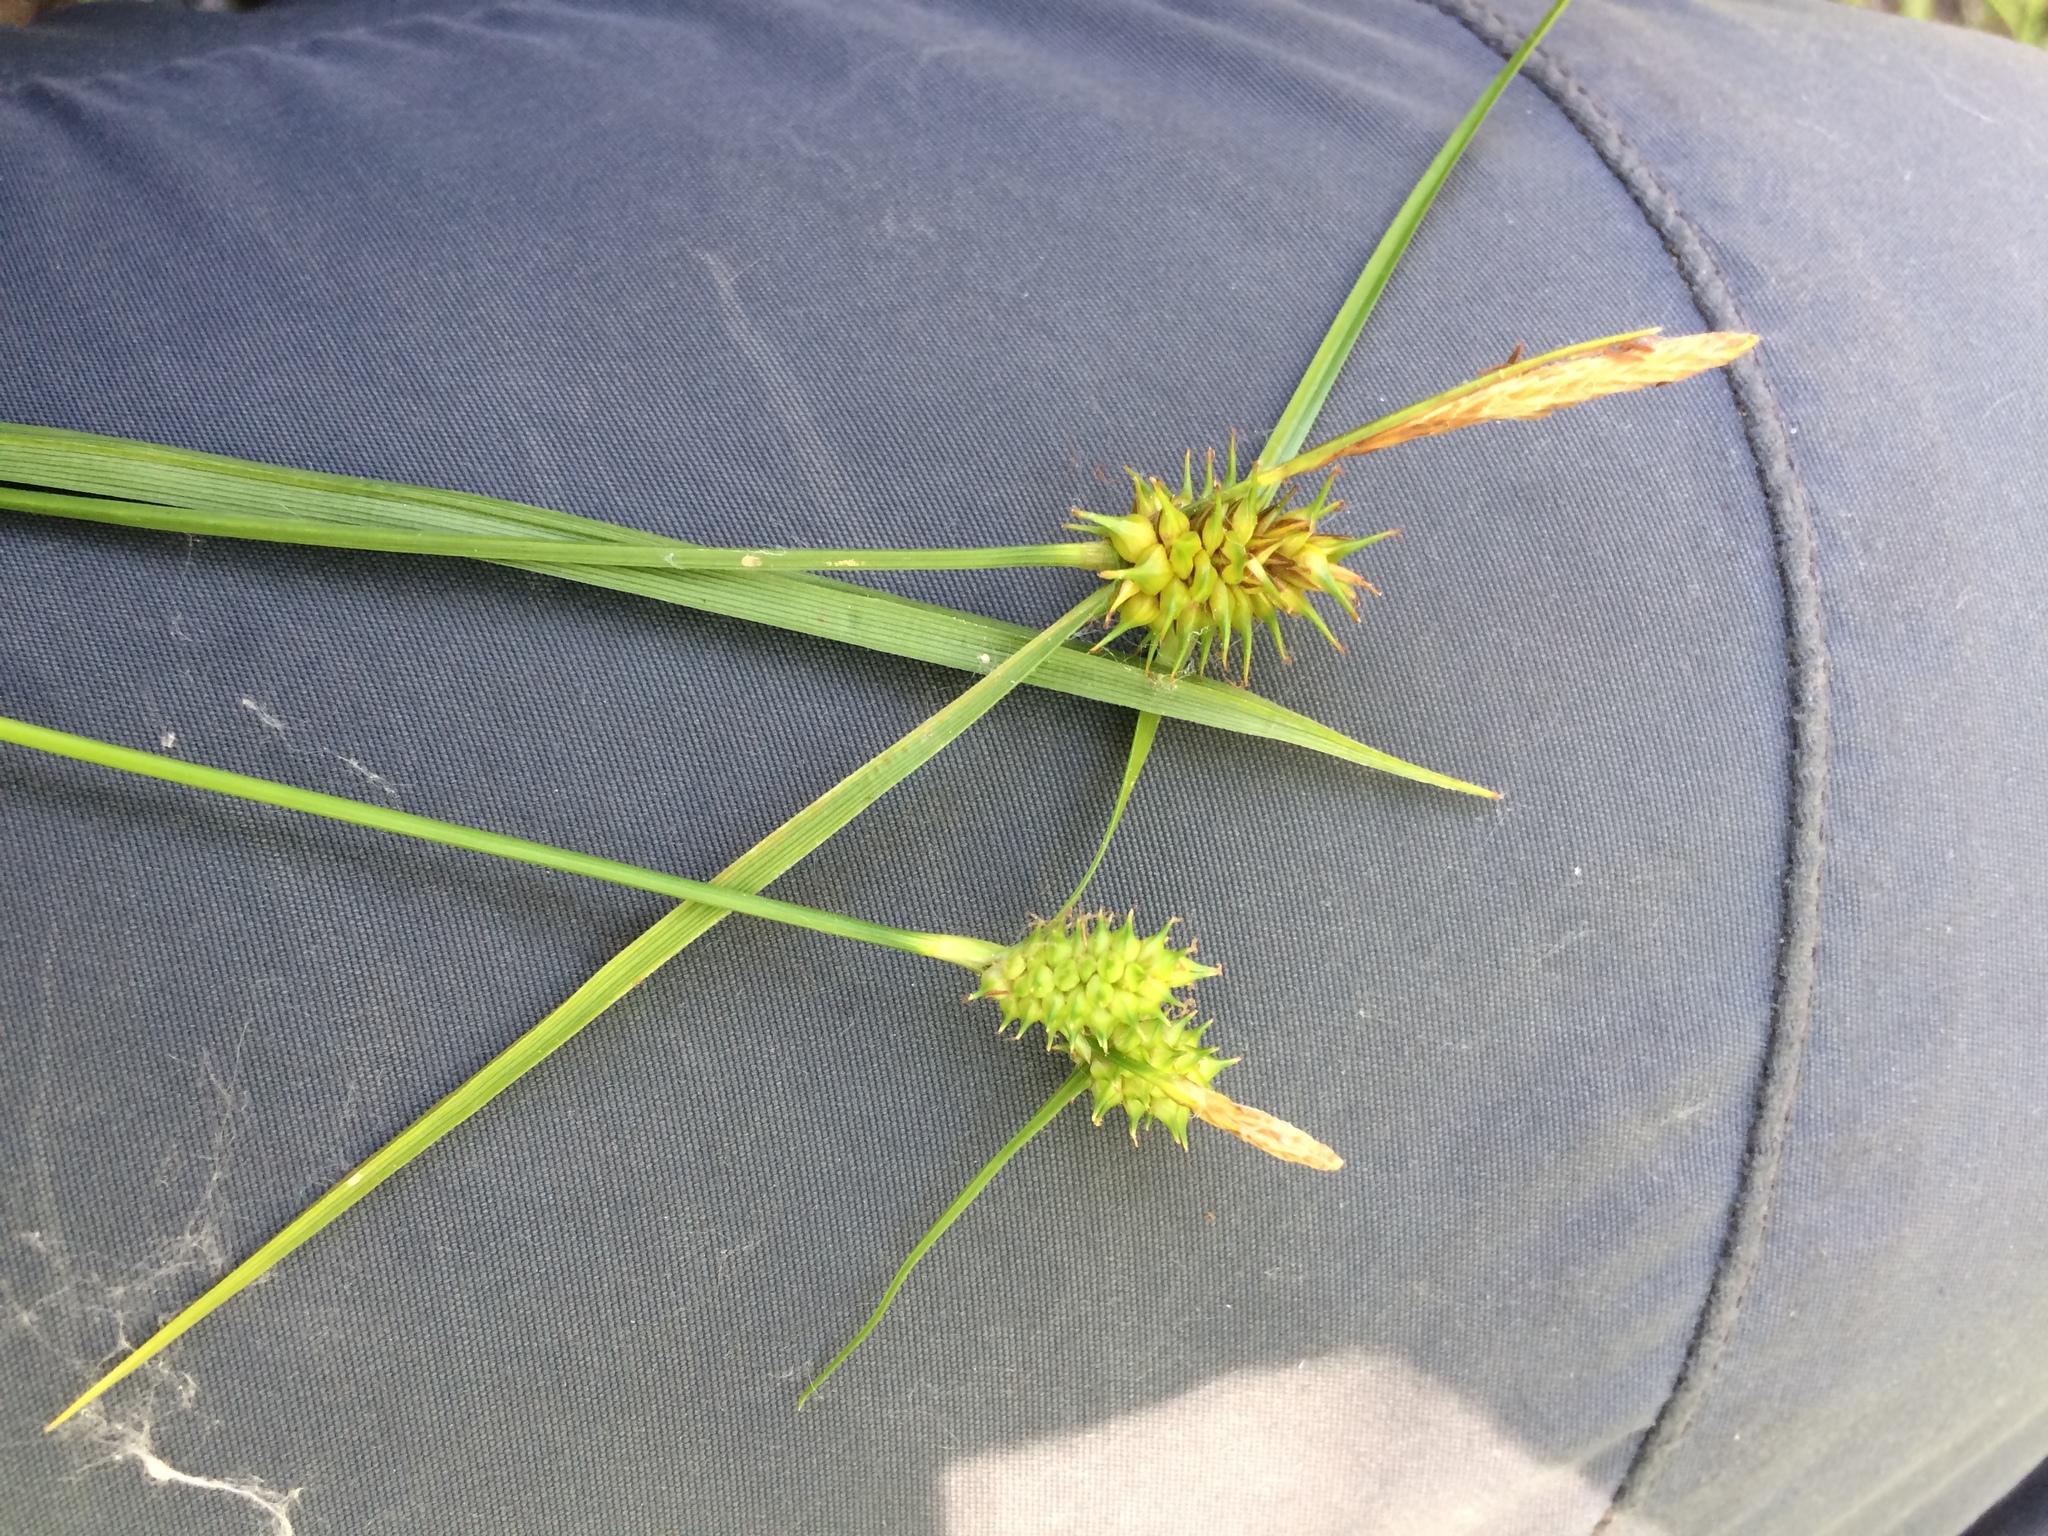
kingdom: Plantae
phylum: Tracheophyta
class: Liliopsida
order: Poales
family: Cyperaceae
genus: Carex
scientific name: Carex
